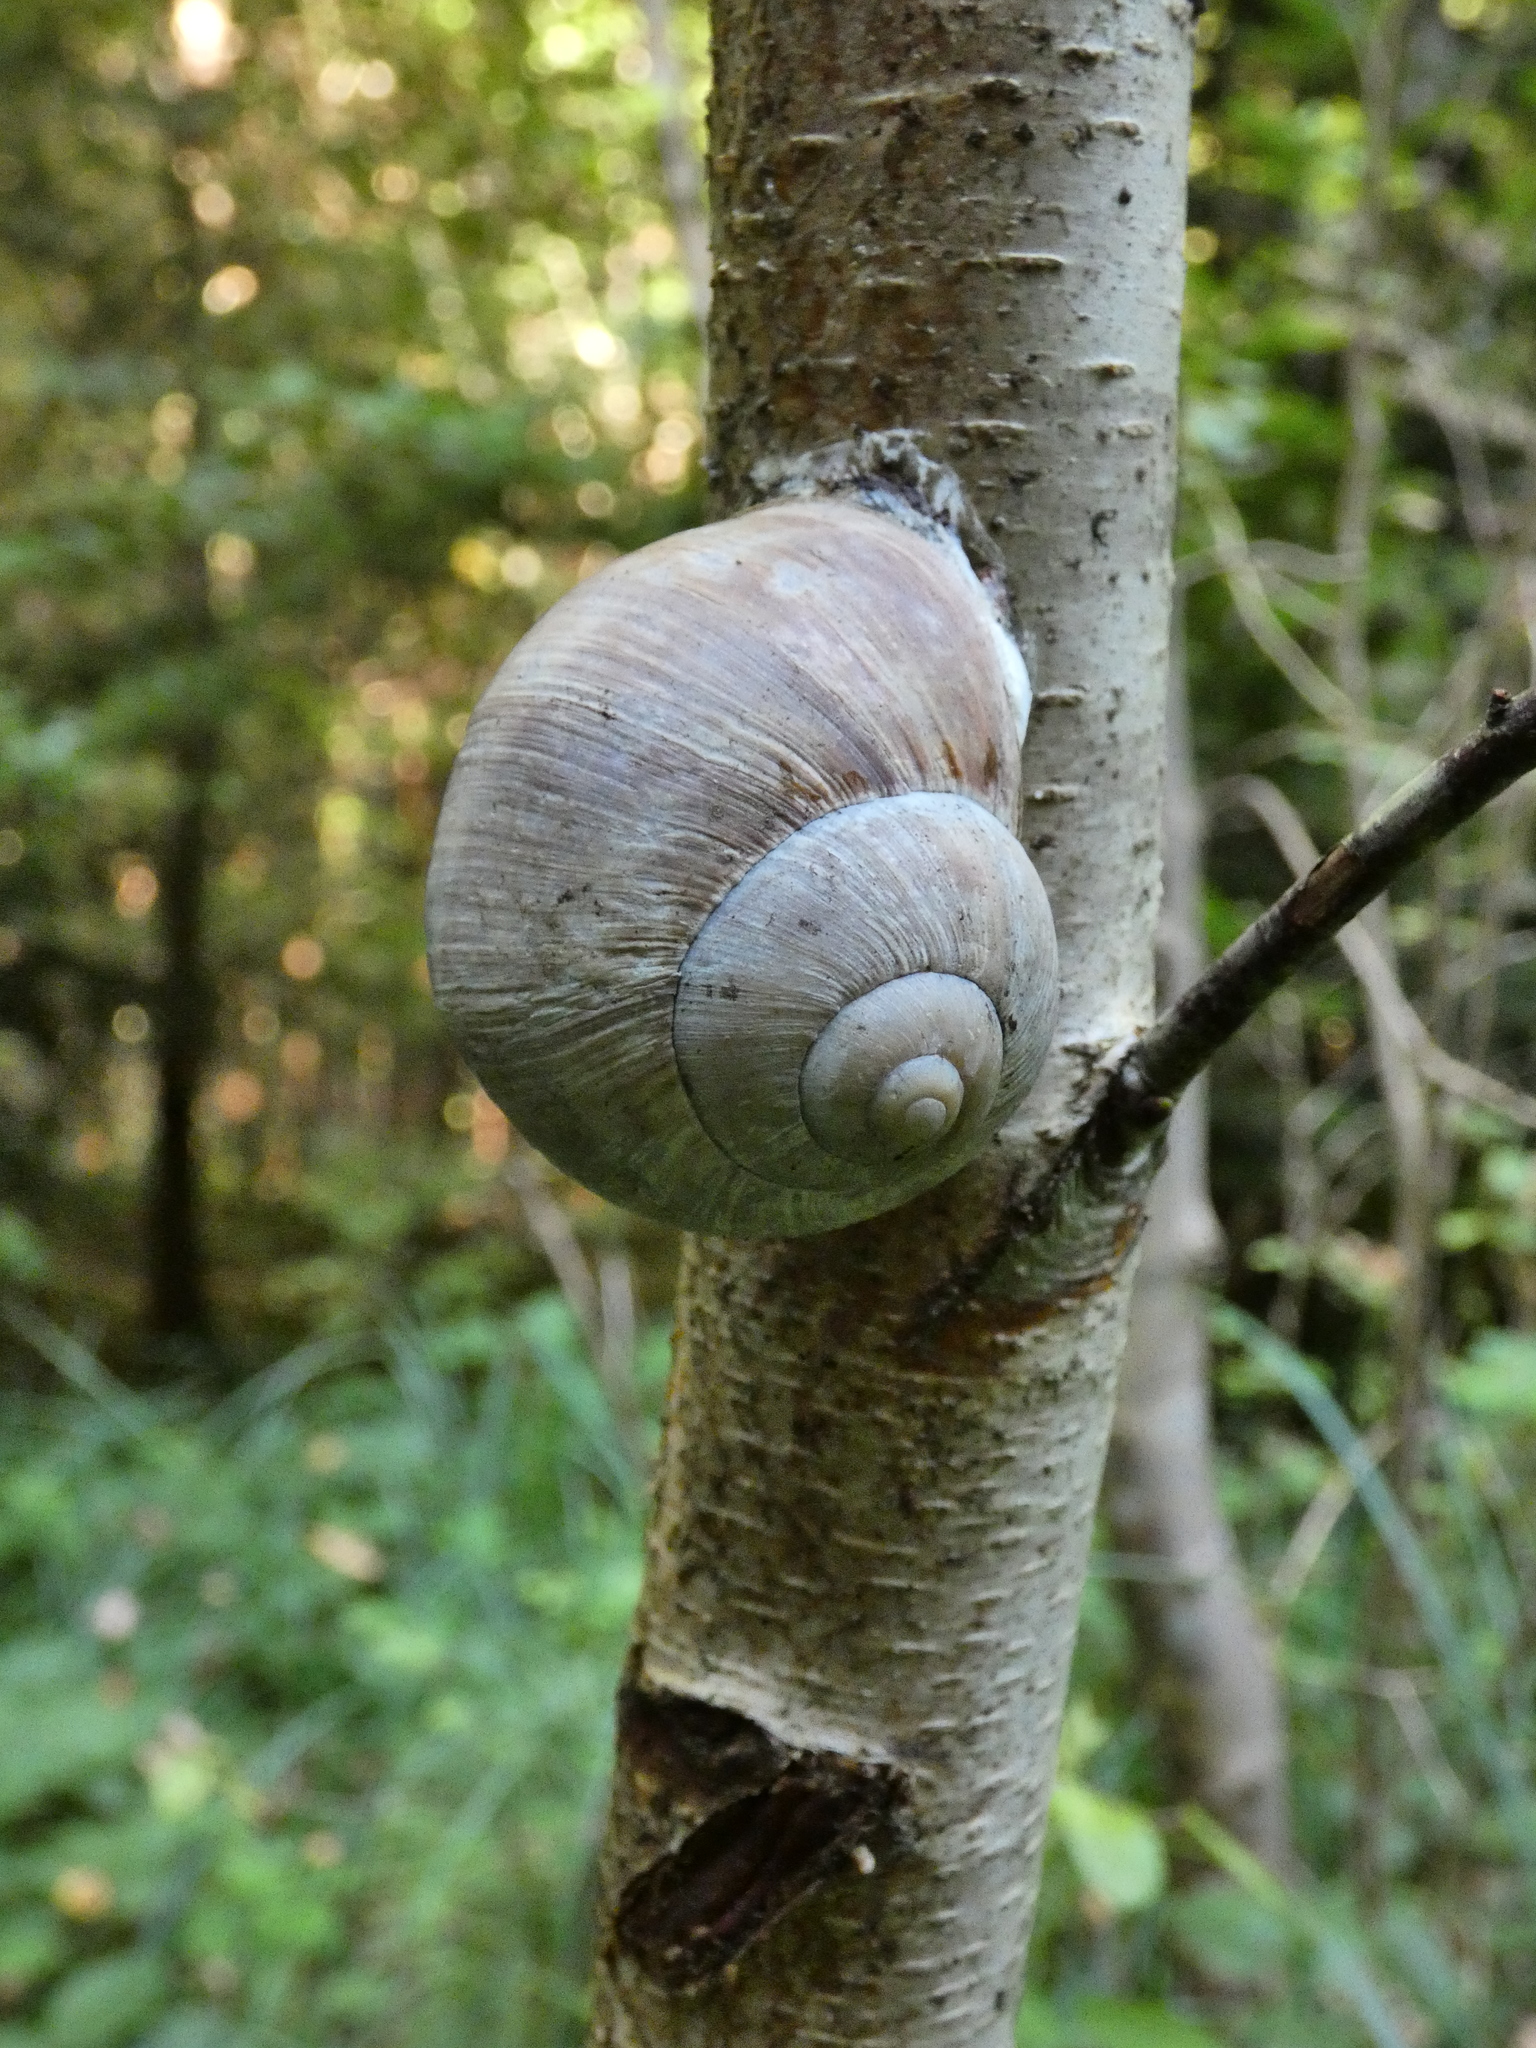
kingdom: Animalia
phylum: Mollusca
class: Gastropoda
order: Stylommatophora
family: Helicidae
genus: Helix
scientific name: Helix pomatia
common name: Roman snail
